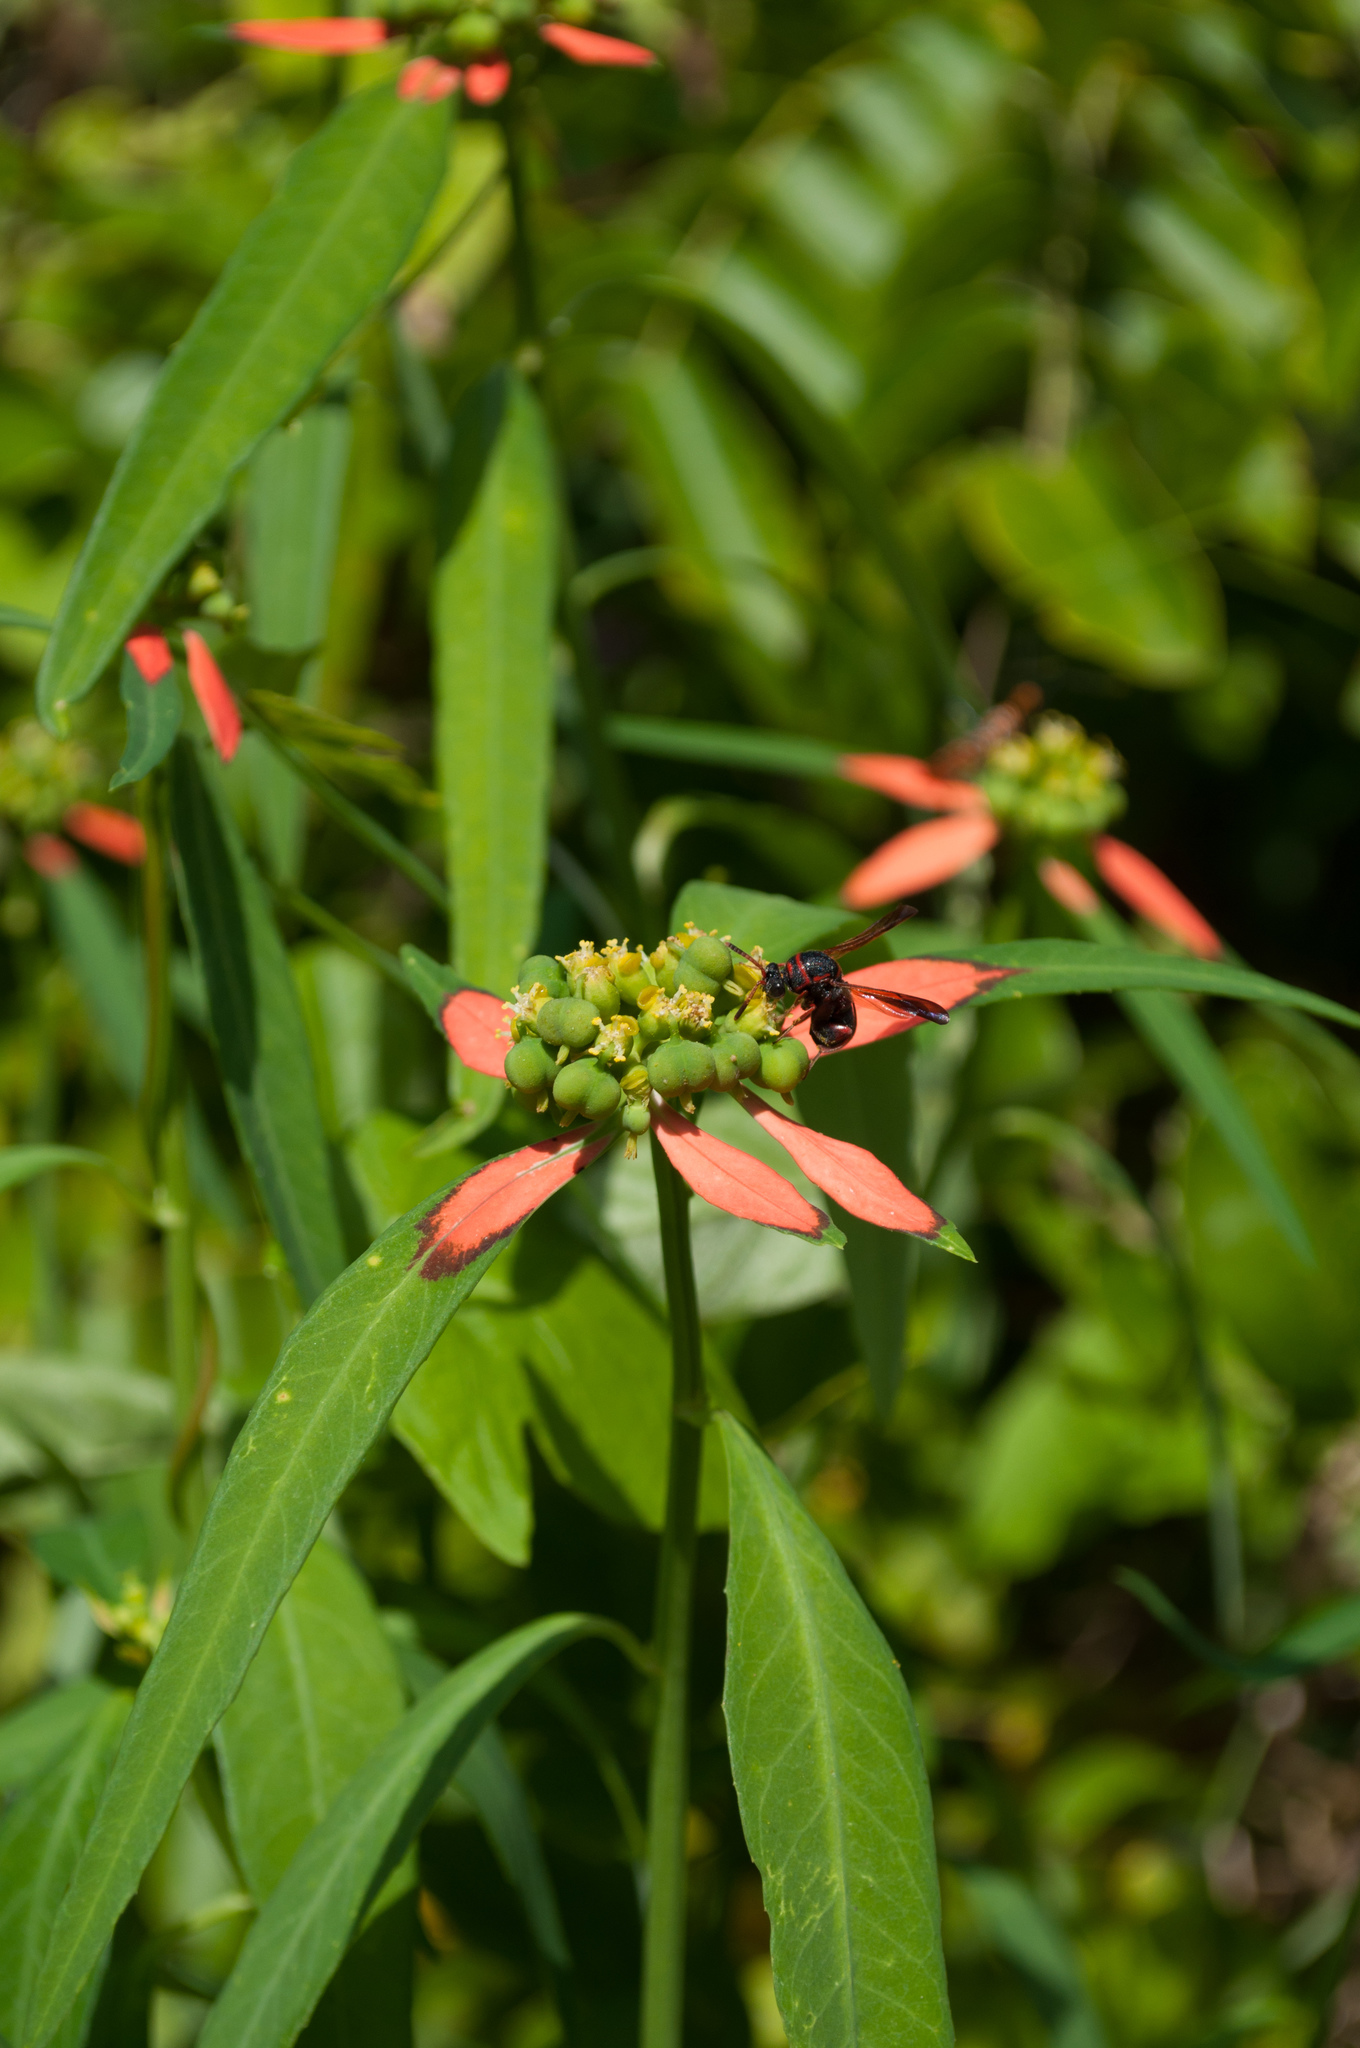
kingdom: Plantae
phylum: Tracheophyta
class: Magnoliopsida
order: Malpighiales
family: Euphorbiaceae
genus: Euphorbia
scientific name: Euphorbia heterophylla
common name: Mexican fireplant
